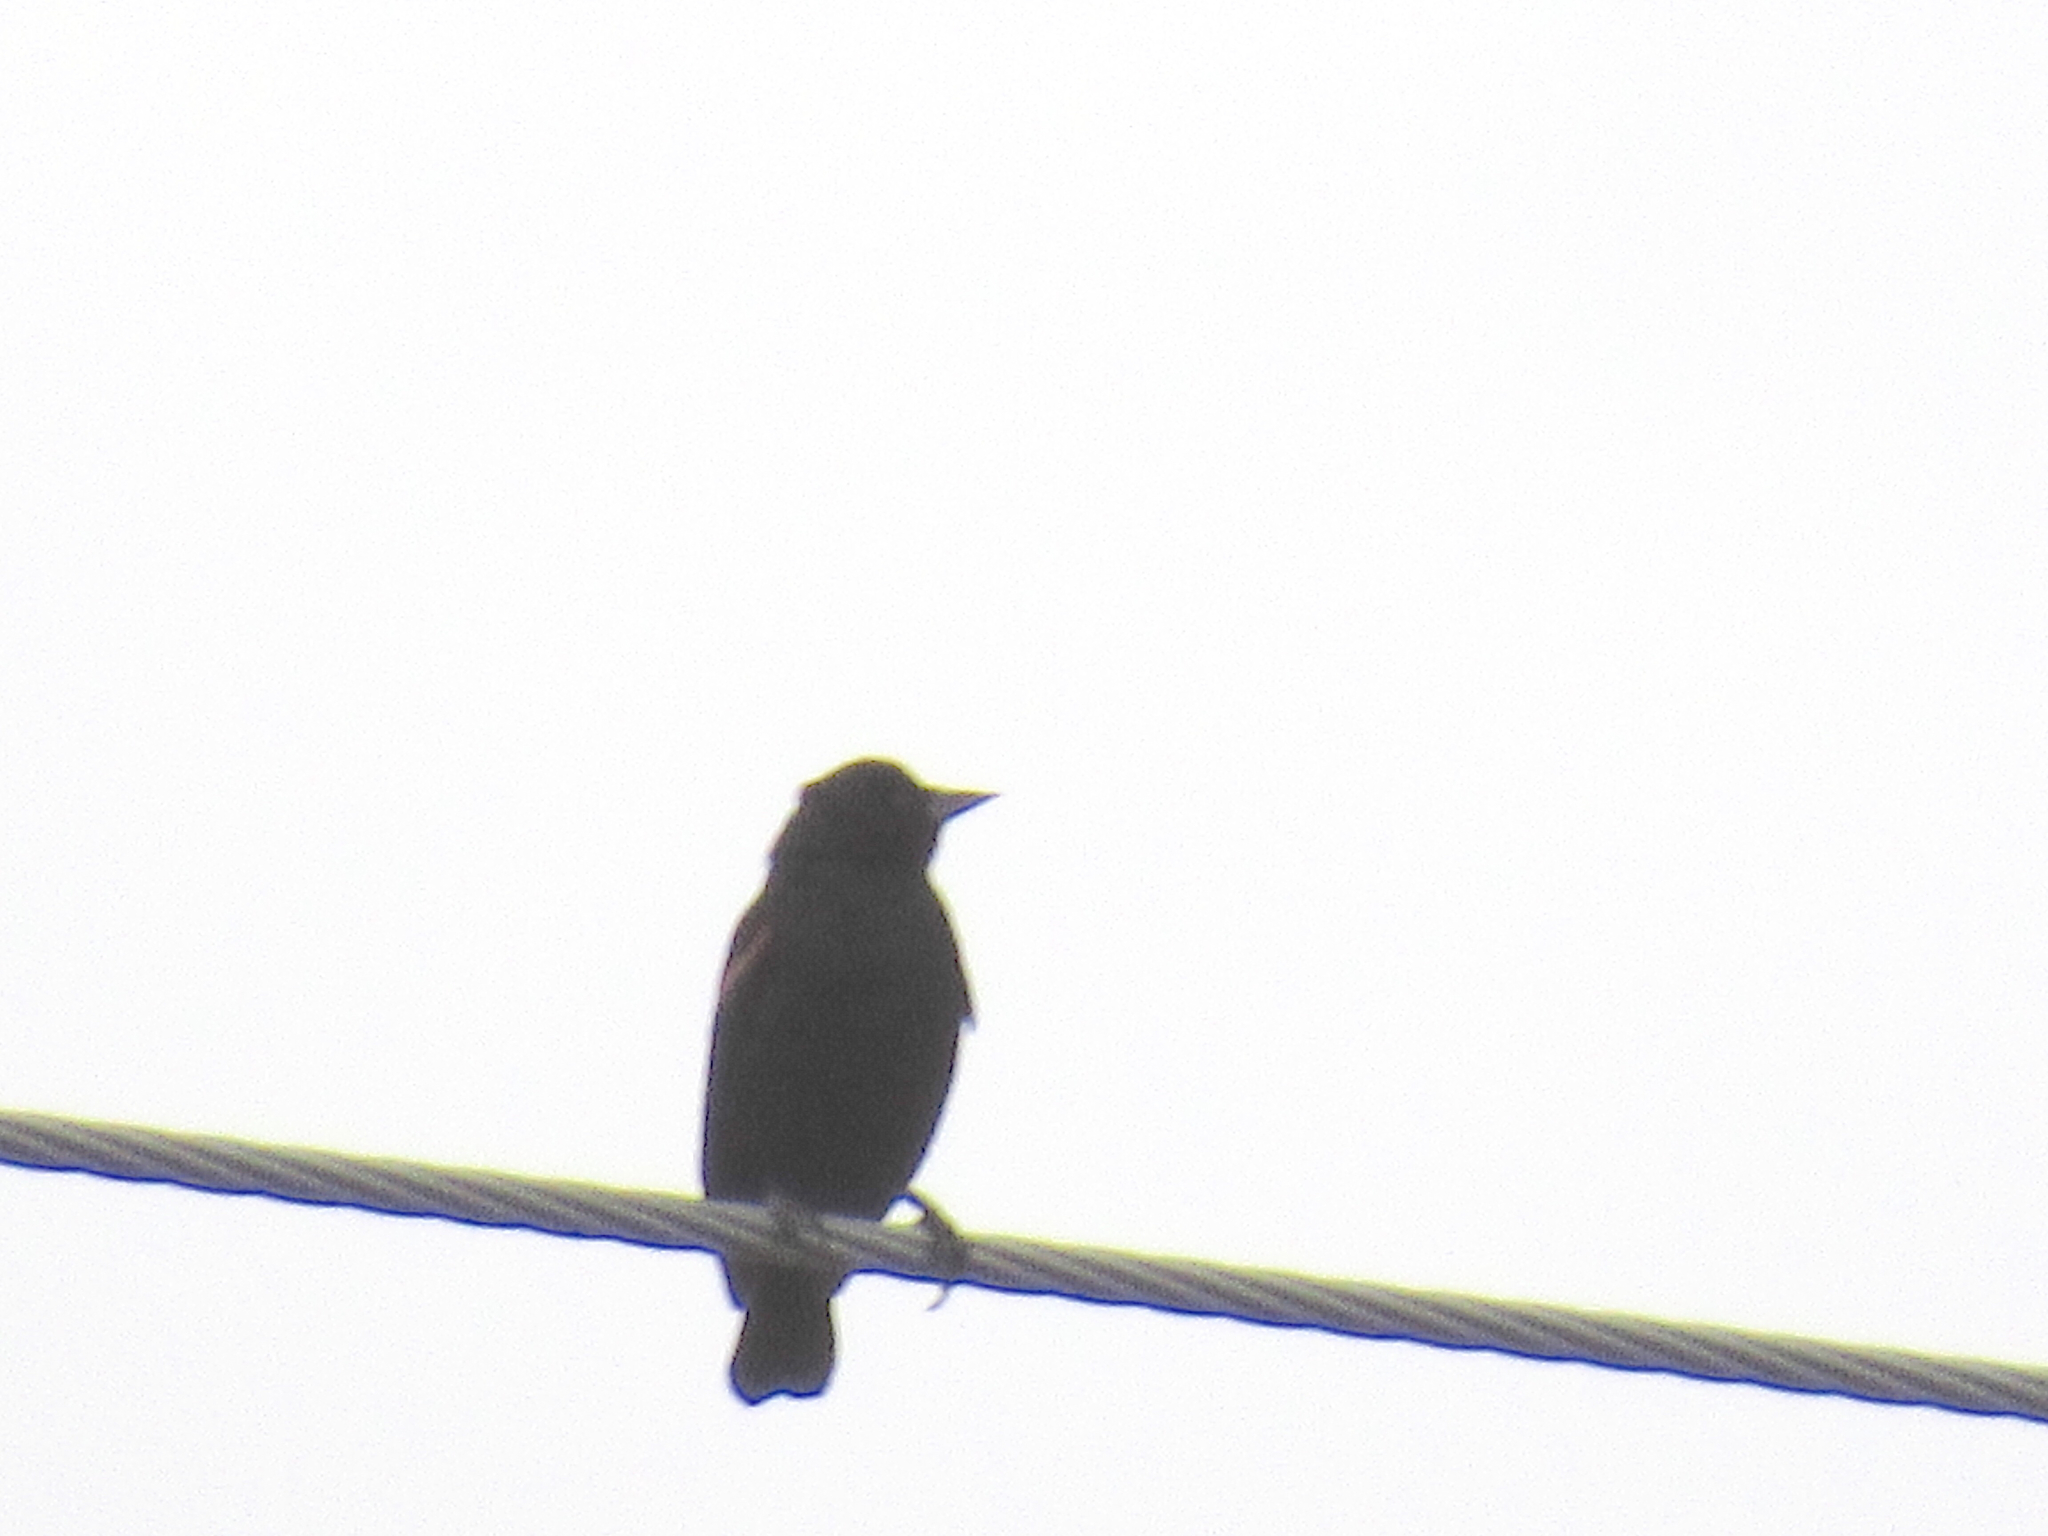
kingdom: Animalia
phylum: Chordata
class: Aves
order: Passeriformes
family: Icteridae
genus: Agelaius
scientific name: Agelaius phoeniceus
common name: Red-winged blackbird
